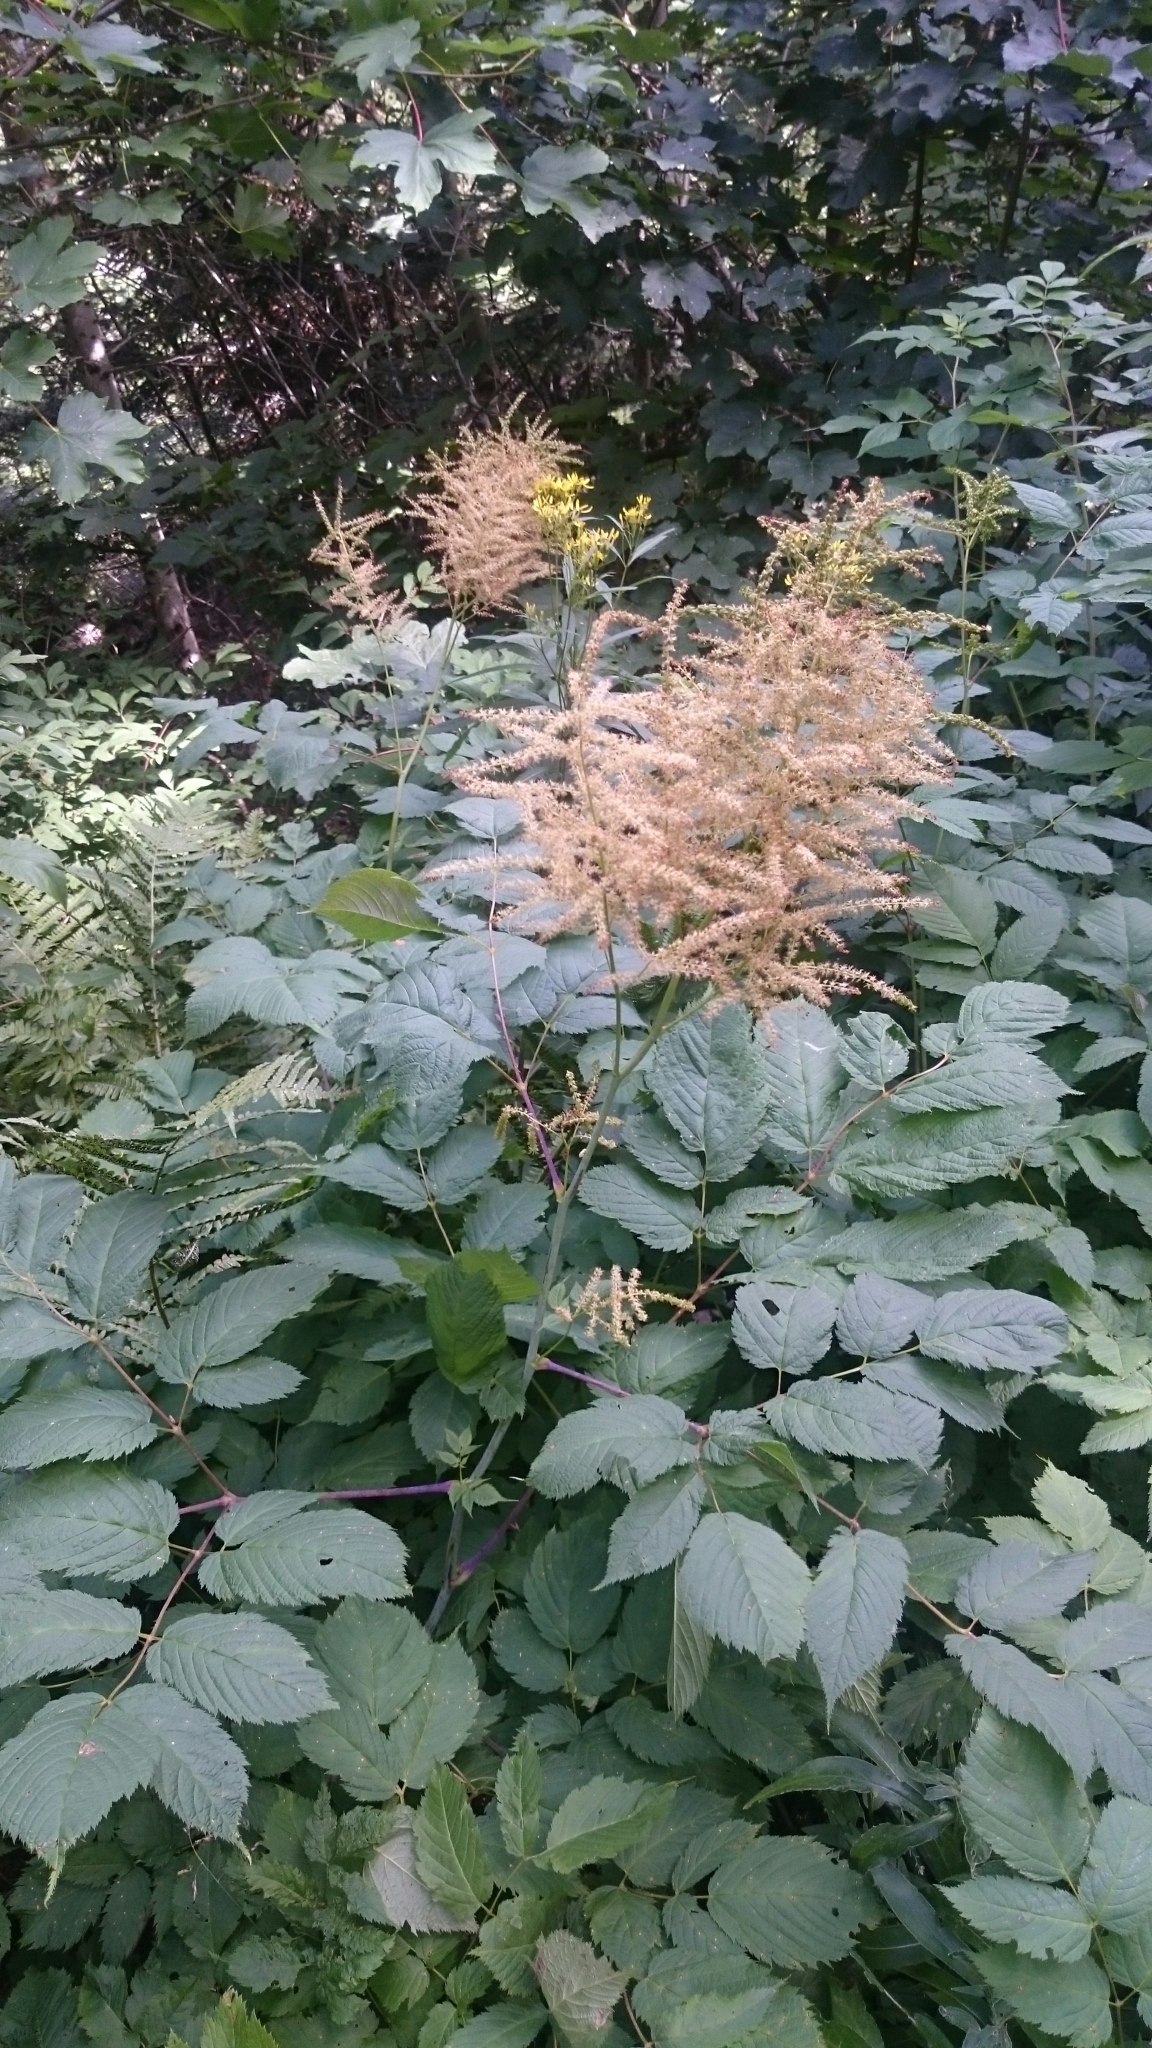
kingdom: Plantae
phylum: Tracheophyta
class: Magnoliopsida
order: Rosales
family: Rosaceae
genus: Aruncus
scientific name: Aruncus dioicus
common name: Buck's-beard
